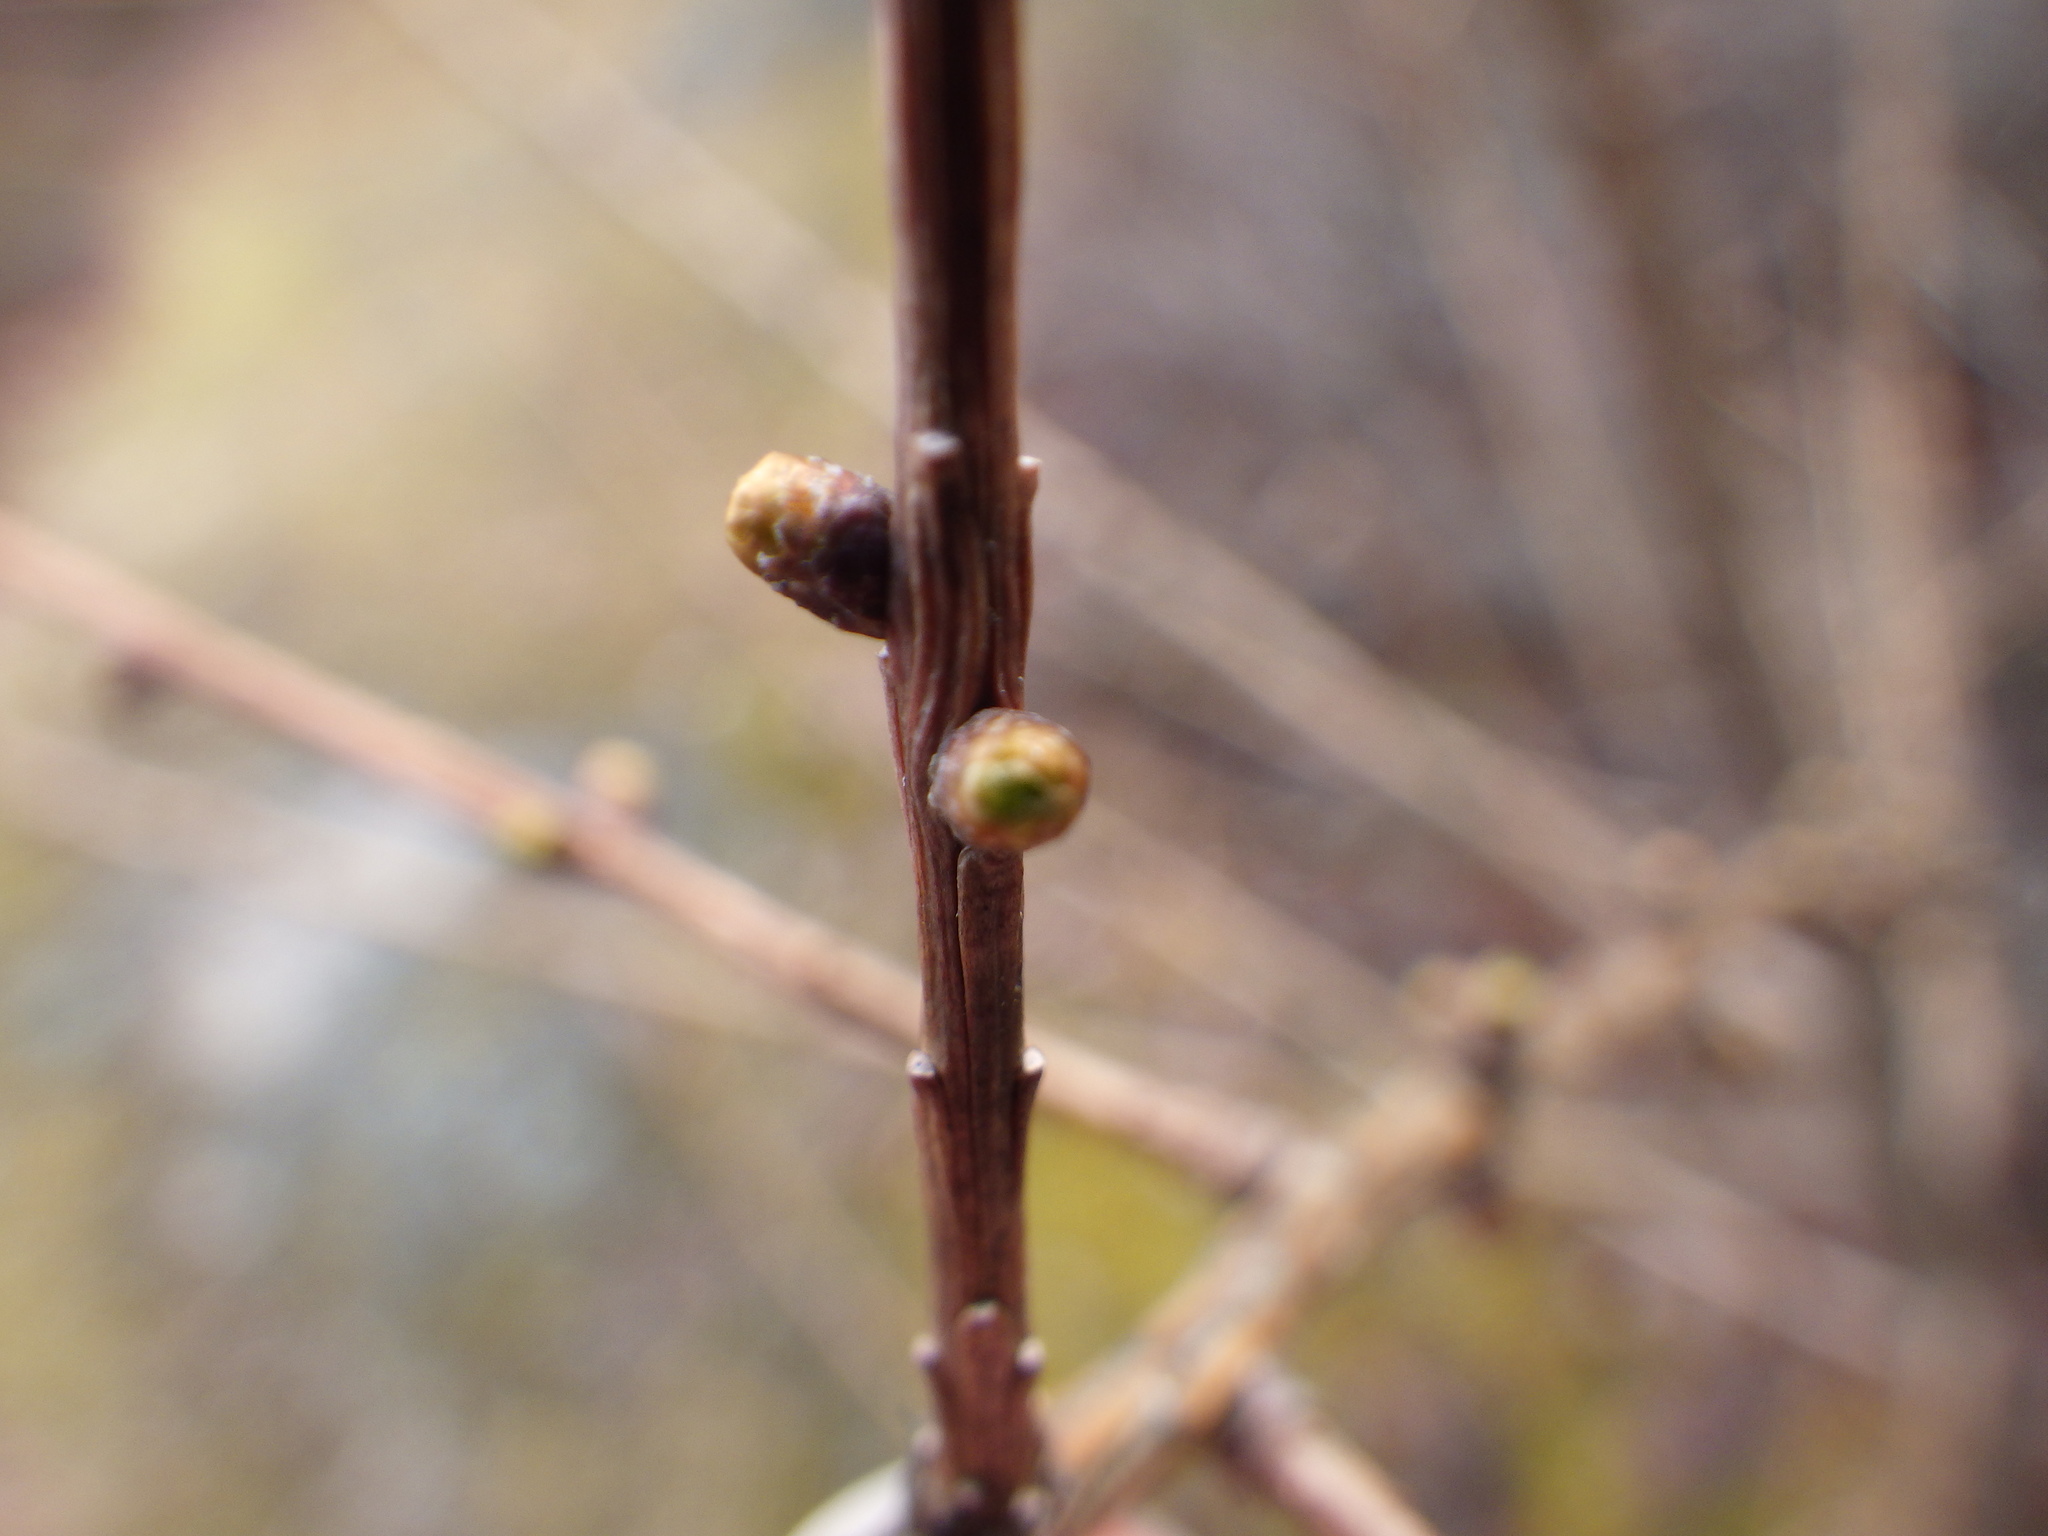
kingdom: Plantae
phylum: Tracheophyta
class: Pinopsida
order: Pinales
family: Pinaceae
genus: Larix
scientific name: Larix laricina
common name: American larch
